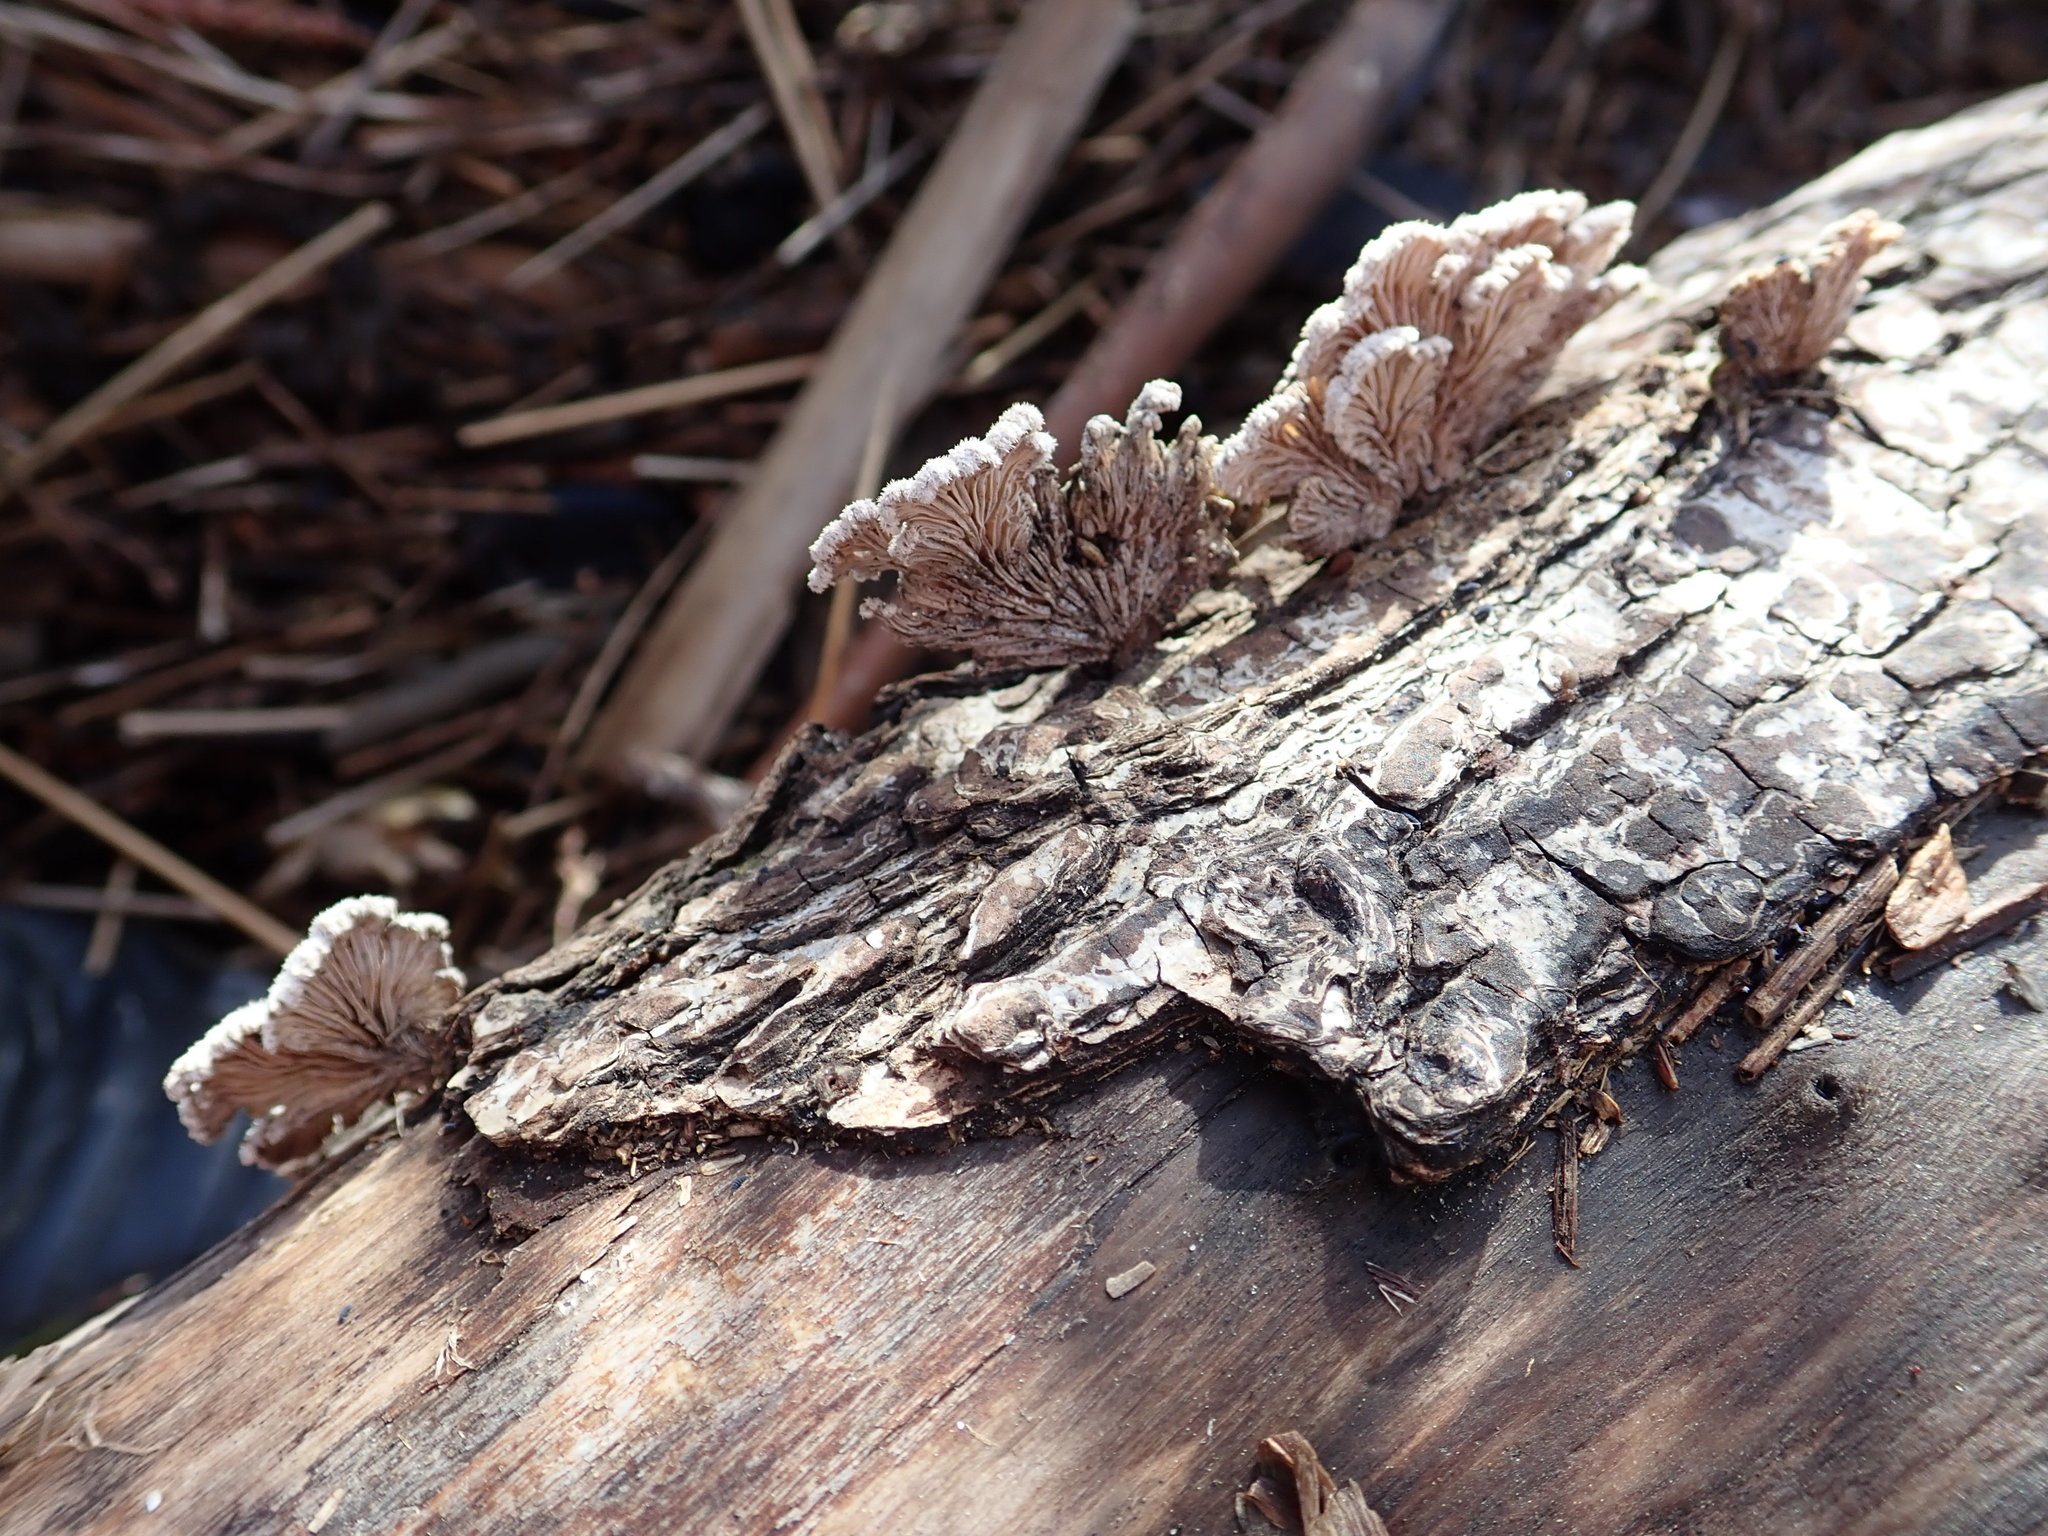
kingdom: Fungi
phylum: Basidiomycota
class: Agaricomycetes
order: Agaricales
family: Schizophyllaceae
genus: Schizophyllum
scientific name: Schizophyllum commune
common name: Common porecrust
